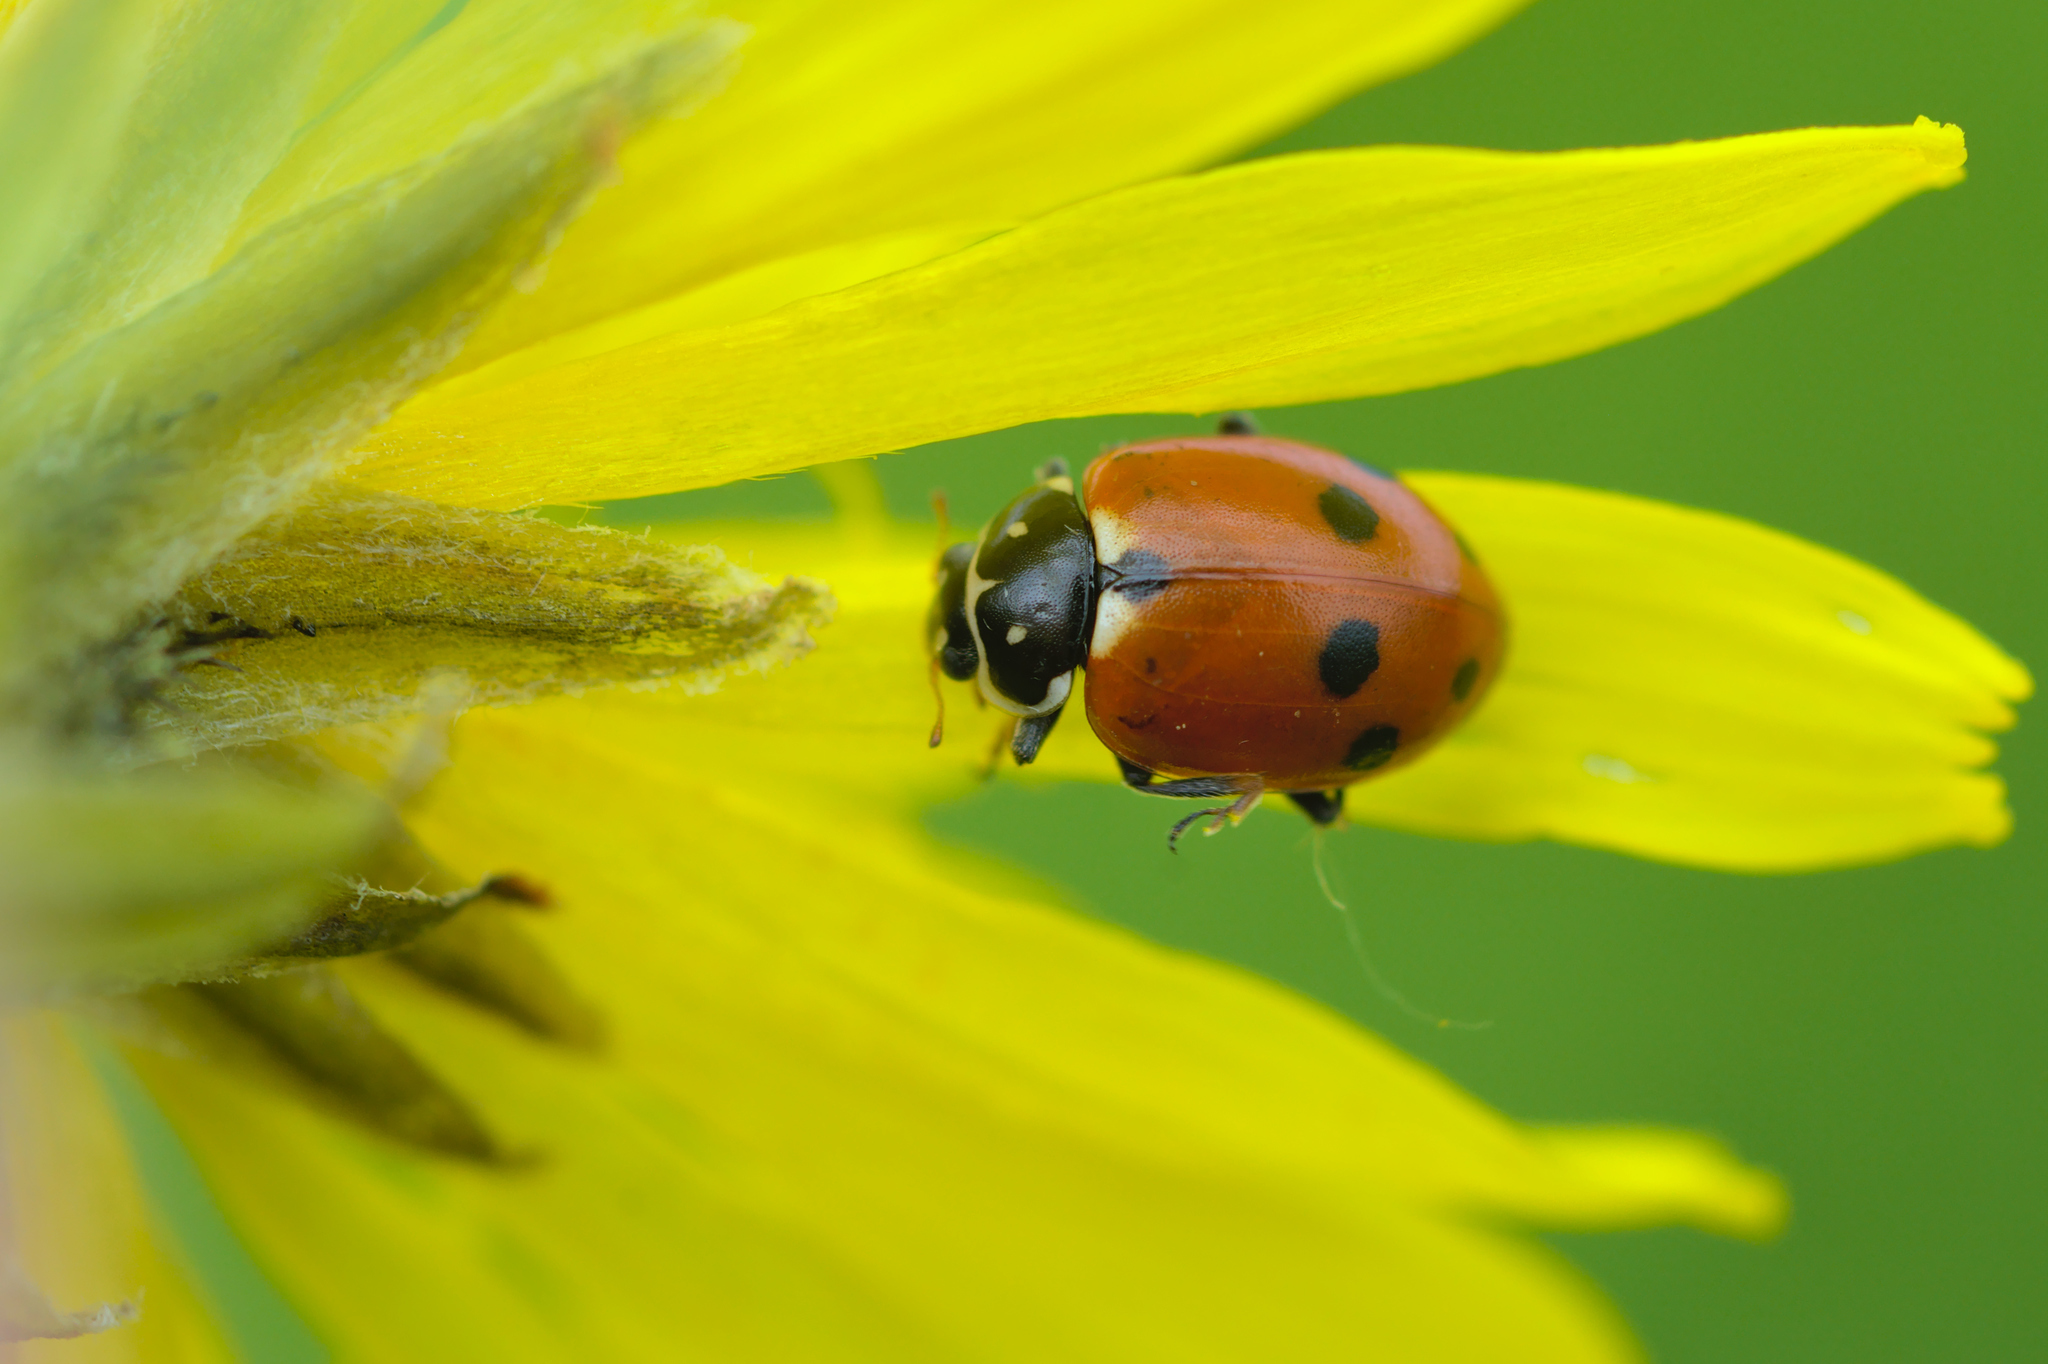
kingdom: Animalia
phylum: Arthropoda
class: Insecta
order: Coleoptera
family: Coccinellidae
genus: Hippodamia
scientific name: Hippodamia variegata
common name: Ladybird beetle
